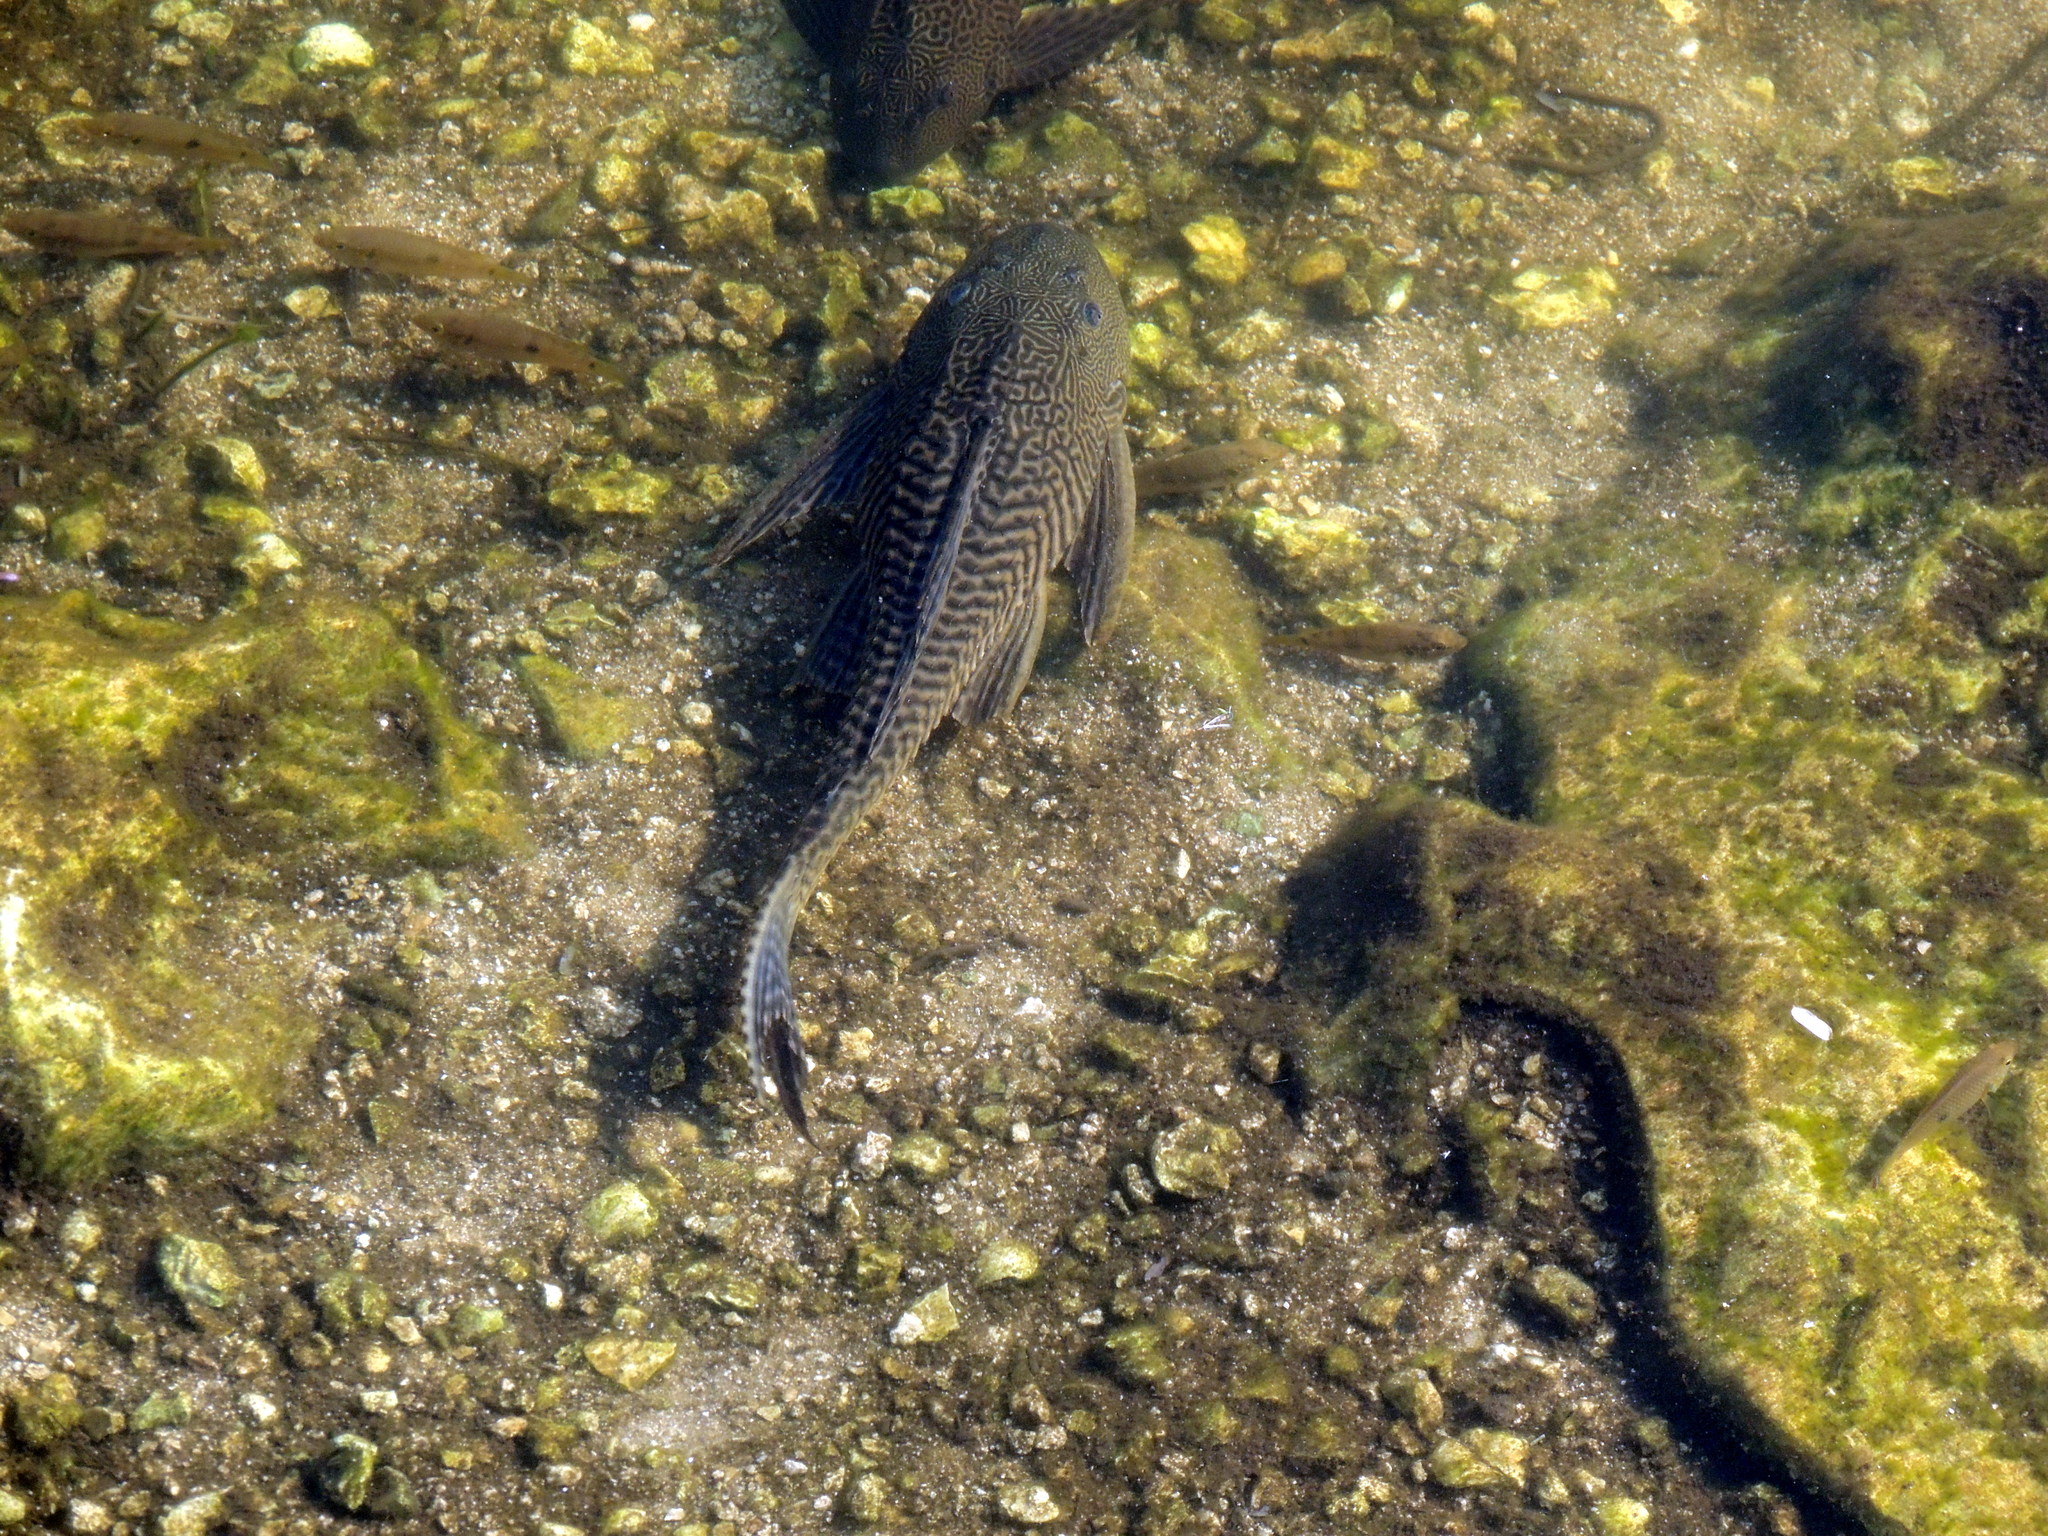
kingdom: Animalia
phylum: Chordata
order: Siluriformes
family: Loricariidae
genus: Pterygoplichthys
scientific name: Pterygoplichthys
